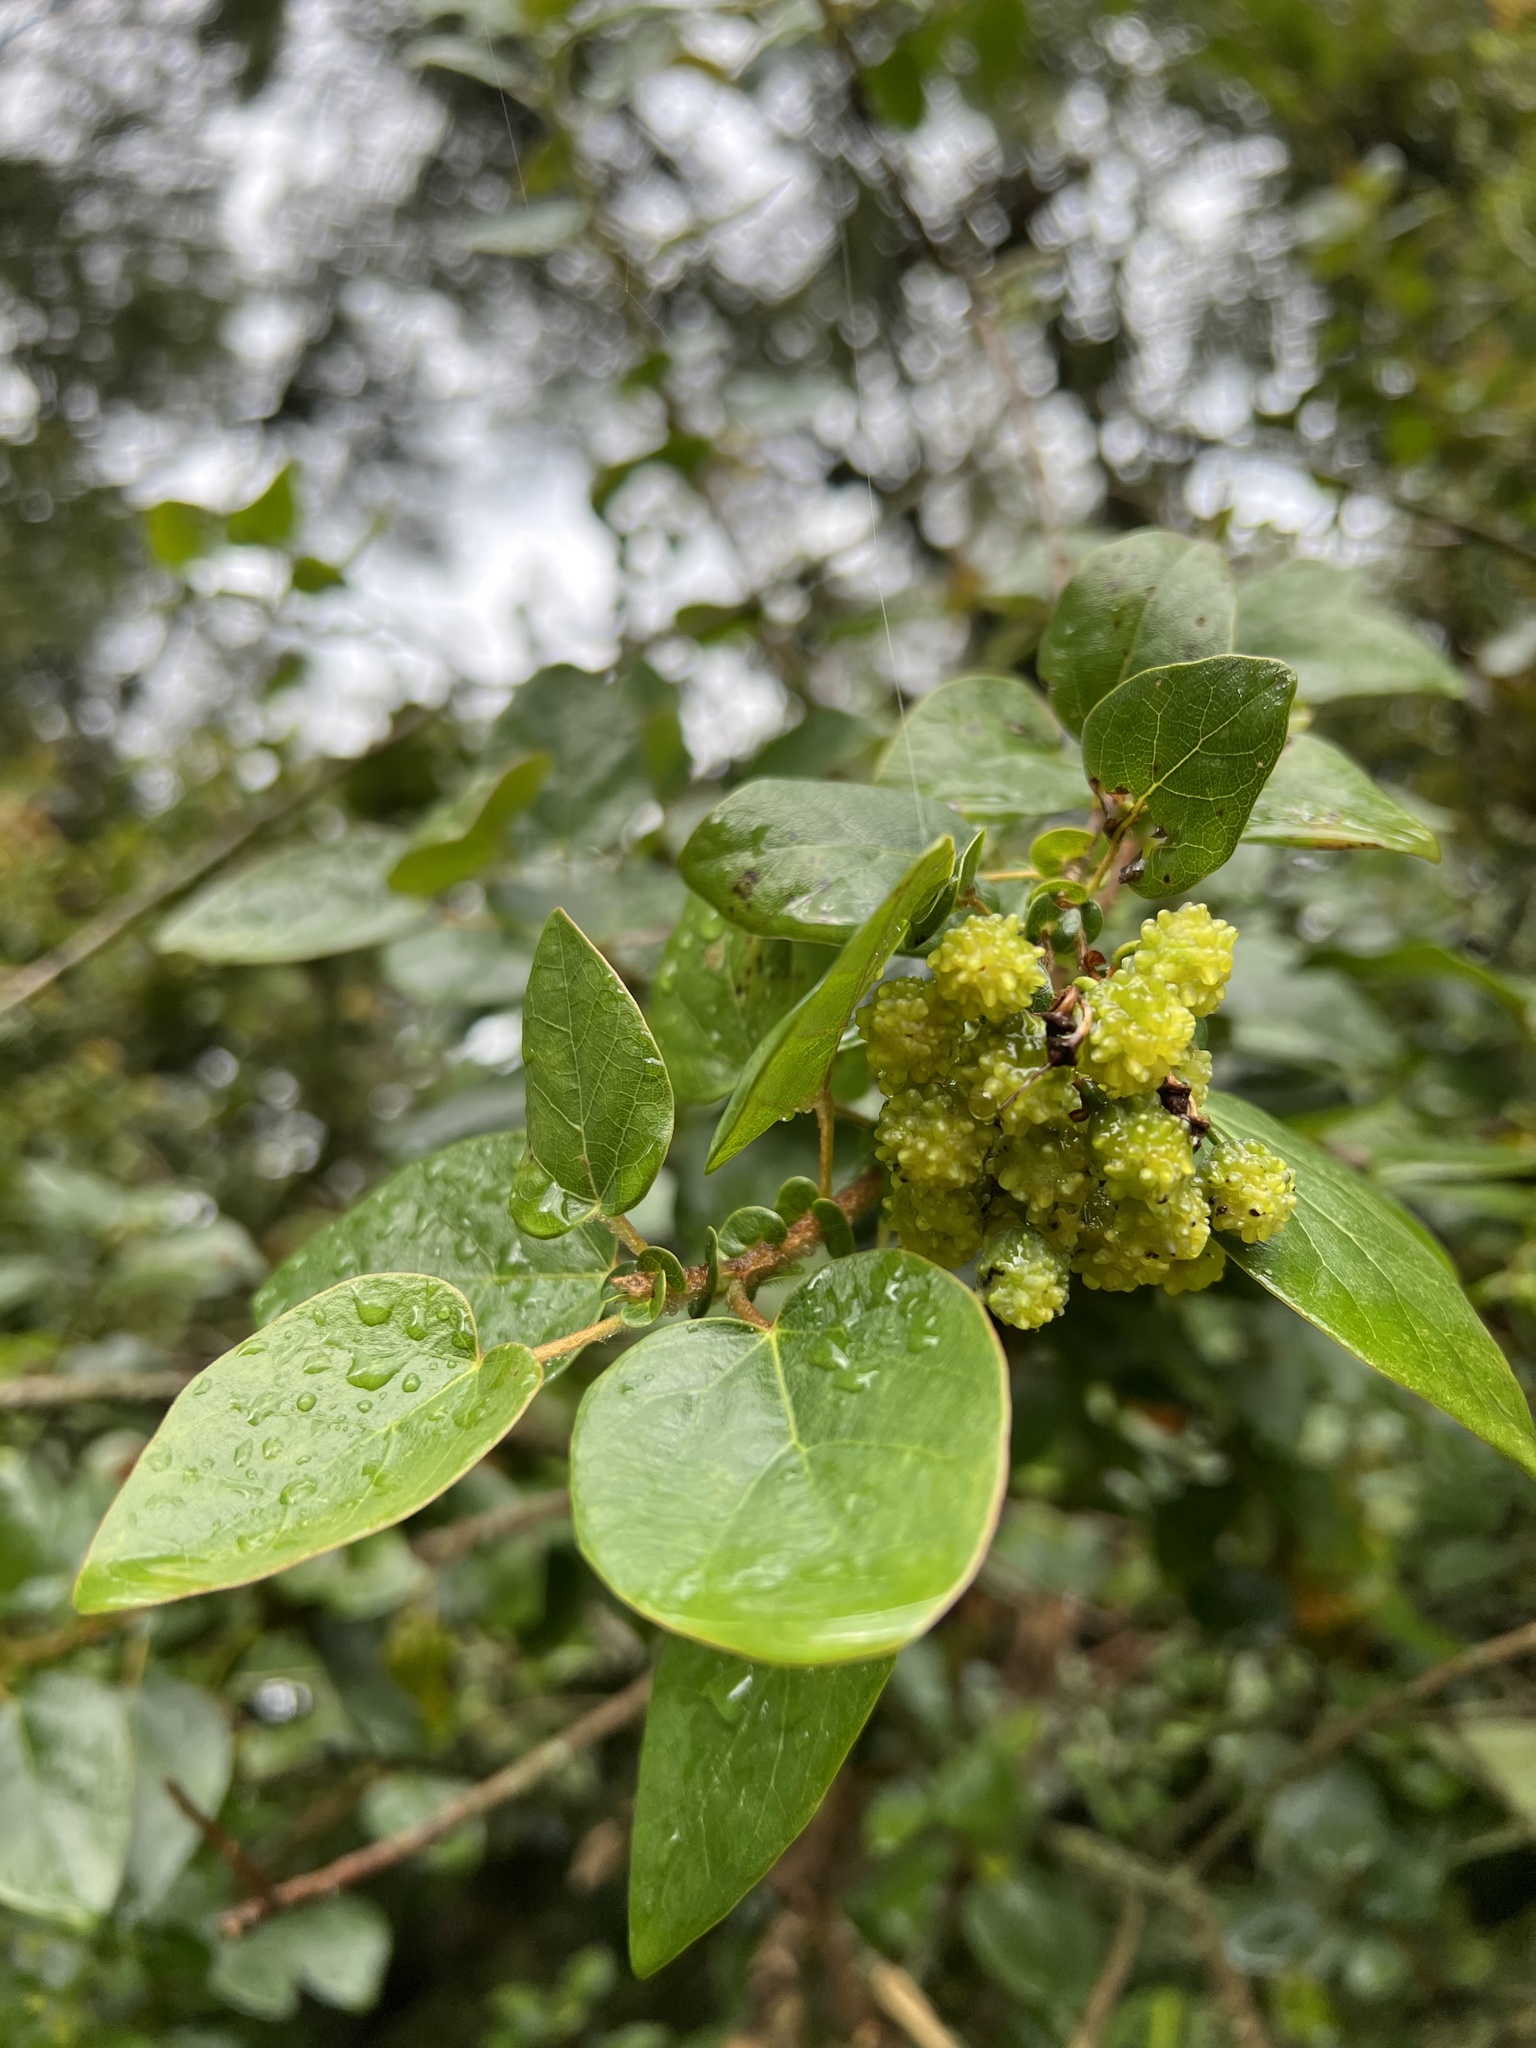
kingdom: Plantae
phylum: Tracheophyta
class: Magnoliopsida
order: Oxalidales
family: Elaeocarpaceae
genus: Vallea
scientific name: Vallea stipularis
